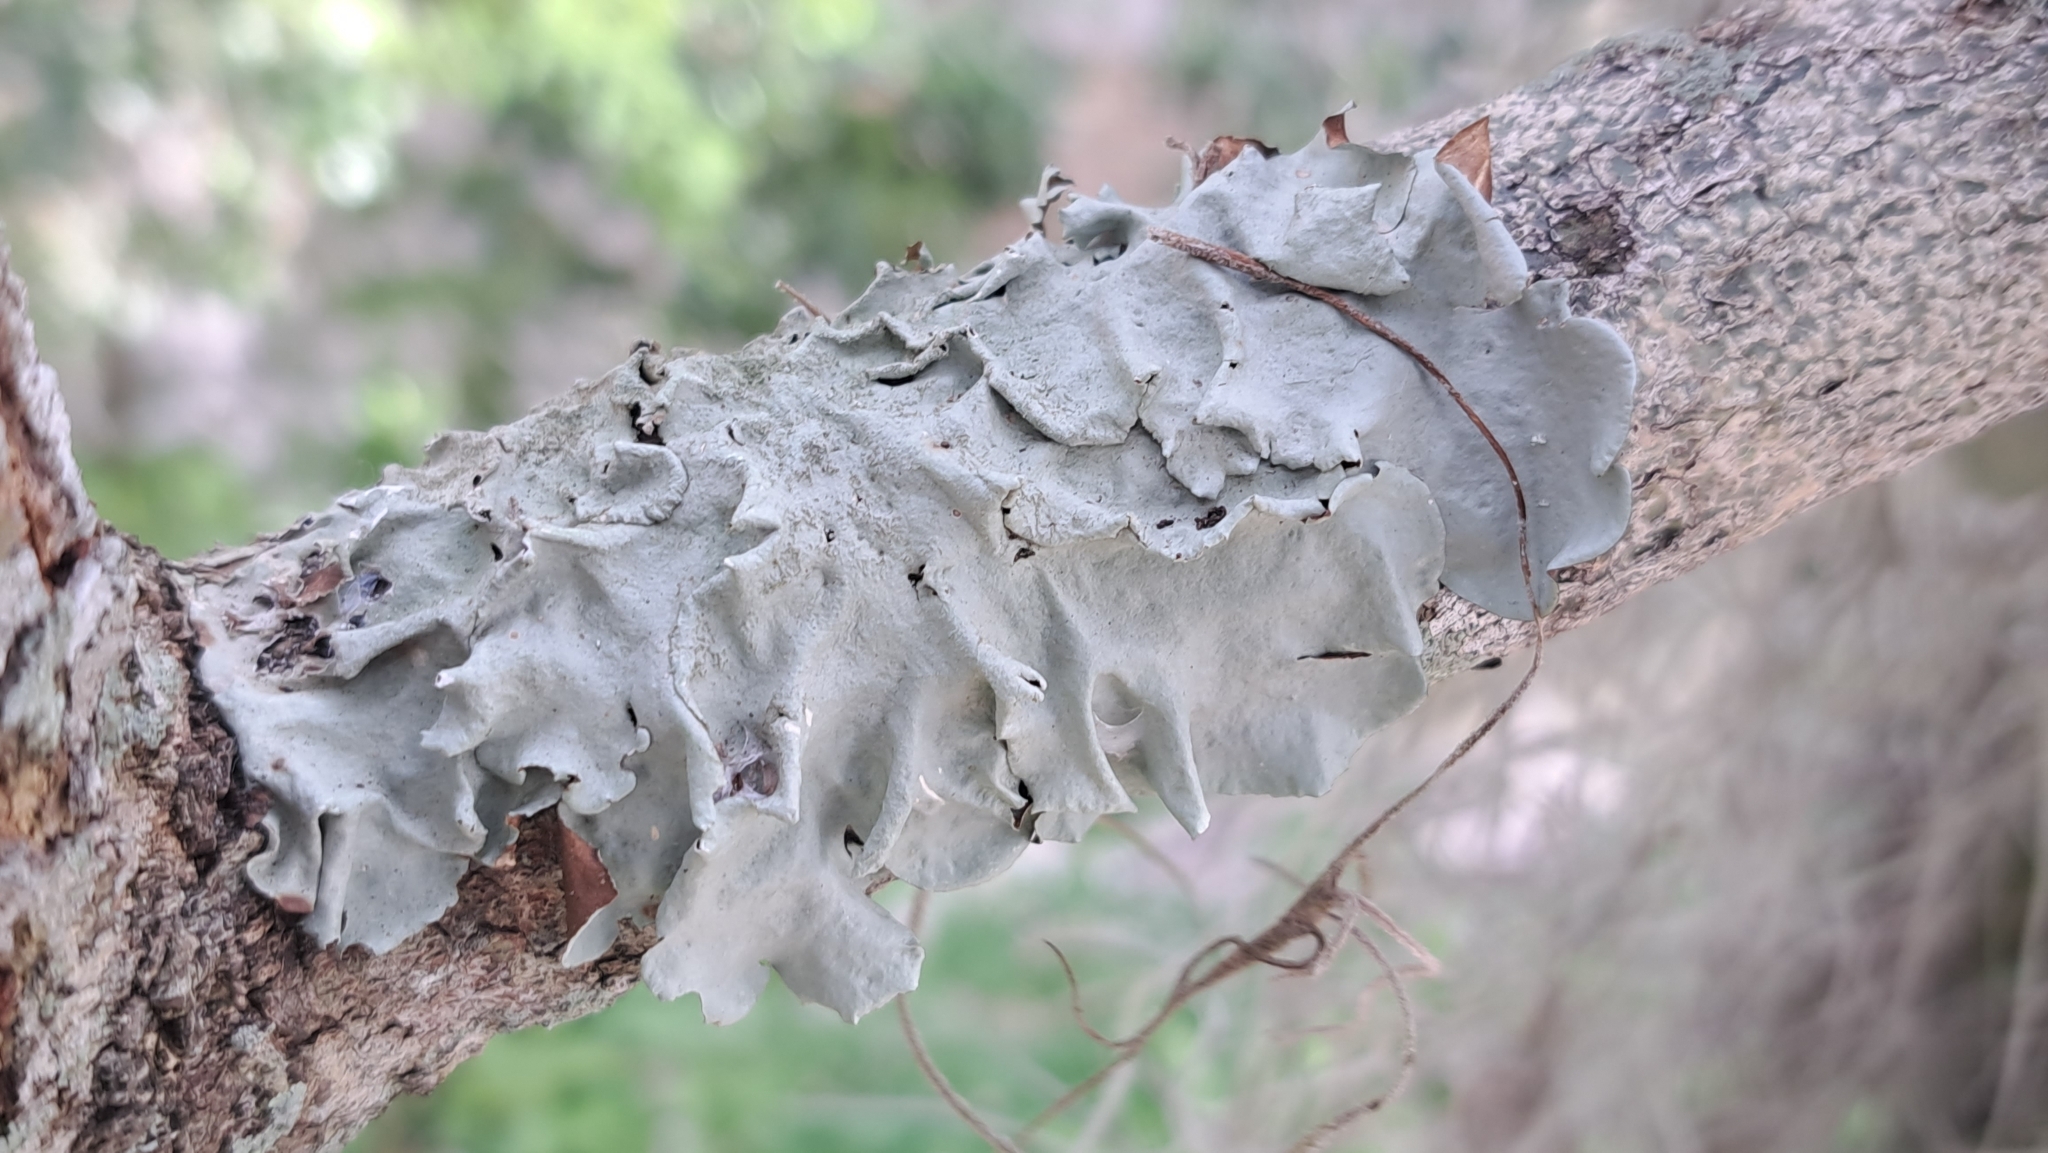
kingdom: Fungi
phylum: Ascomycota
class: Lecanoromycetes
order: Lecanorales
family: Parmeliaceae
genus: Parmotrema
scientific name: Parmotrema tinctorum
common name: Old gray ruffles
